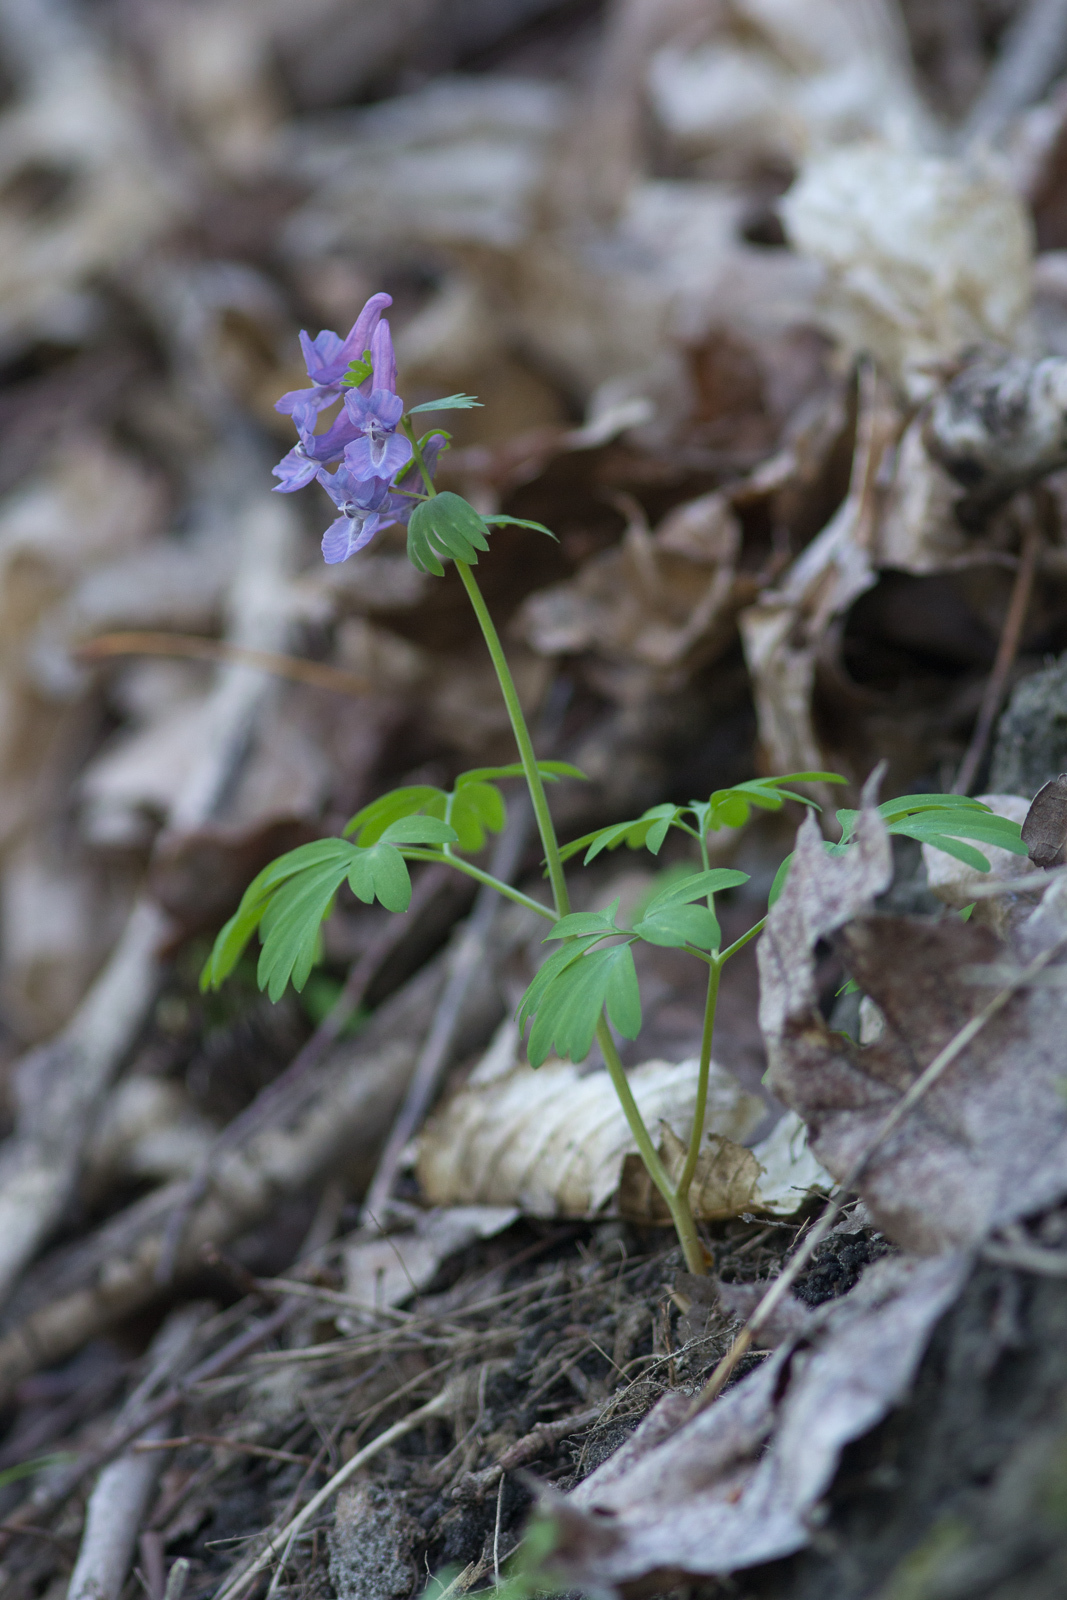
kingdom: Plantae
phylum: Tracheophyta
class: Magnoliopsida
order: Ranunculales
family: Papaveraceae
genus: Corydalis
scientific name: Corydalis solida
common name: Bird-in-a-bush
